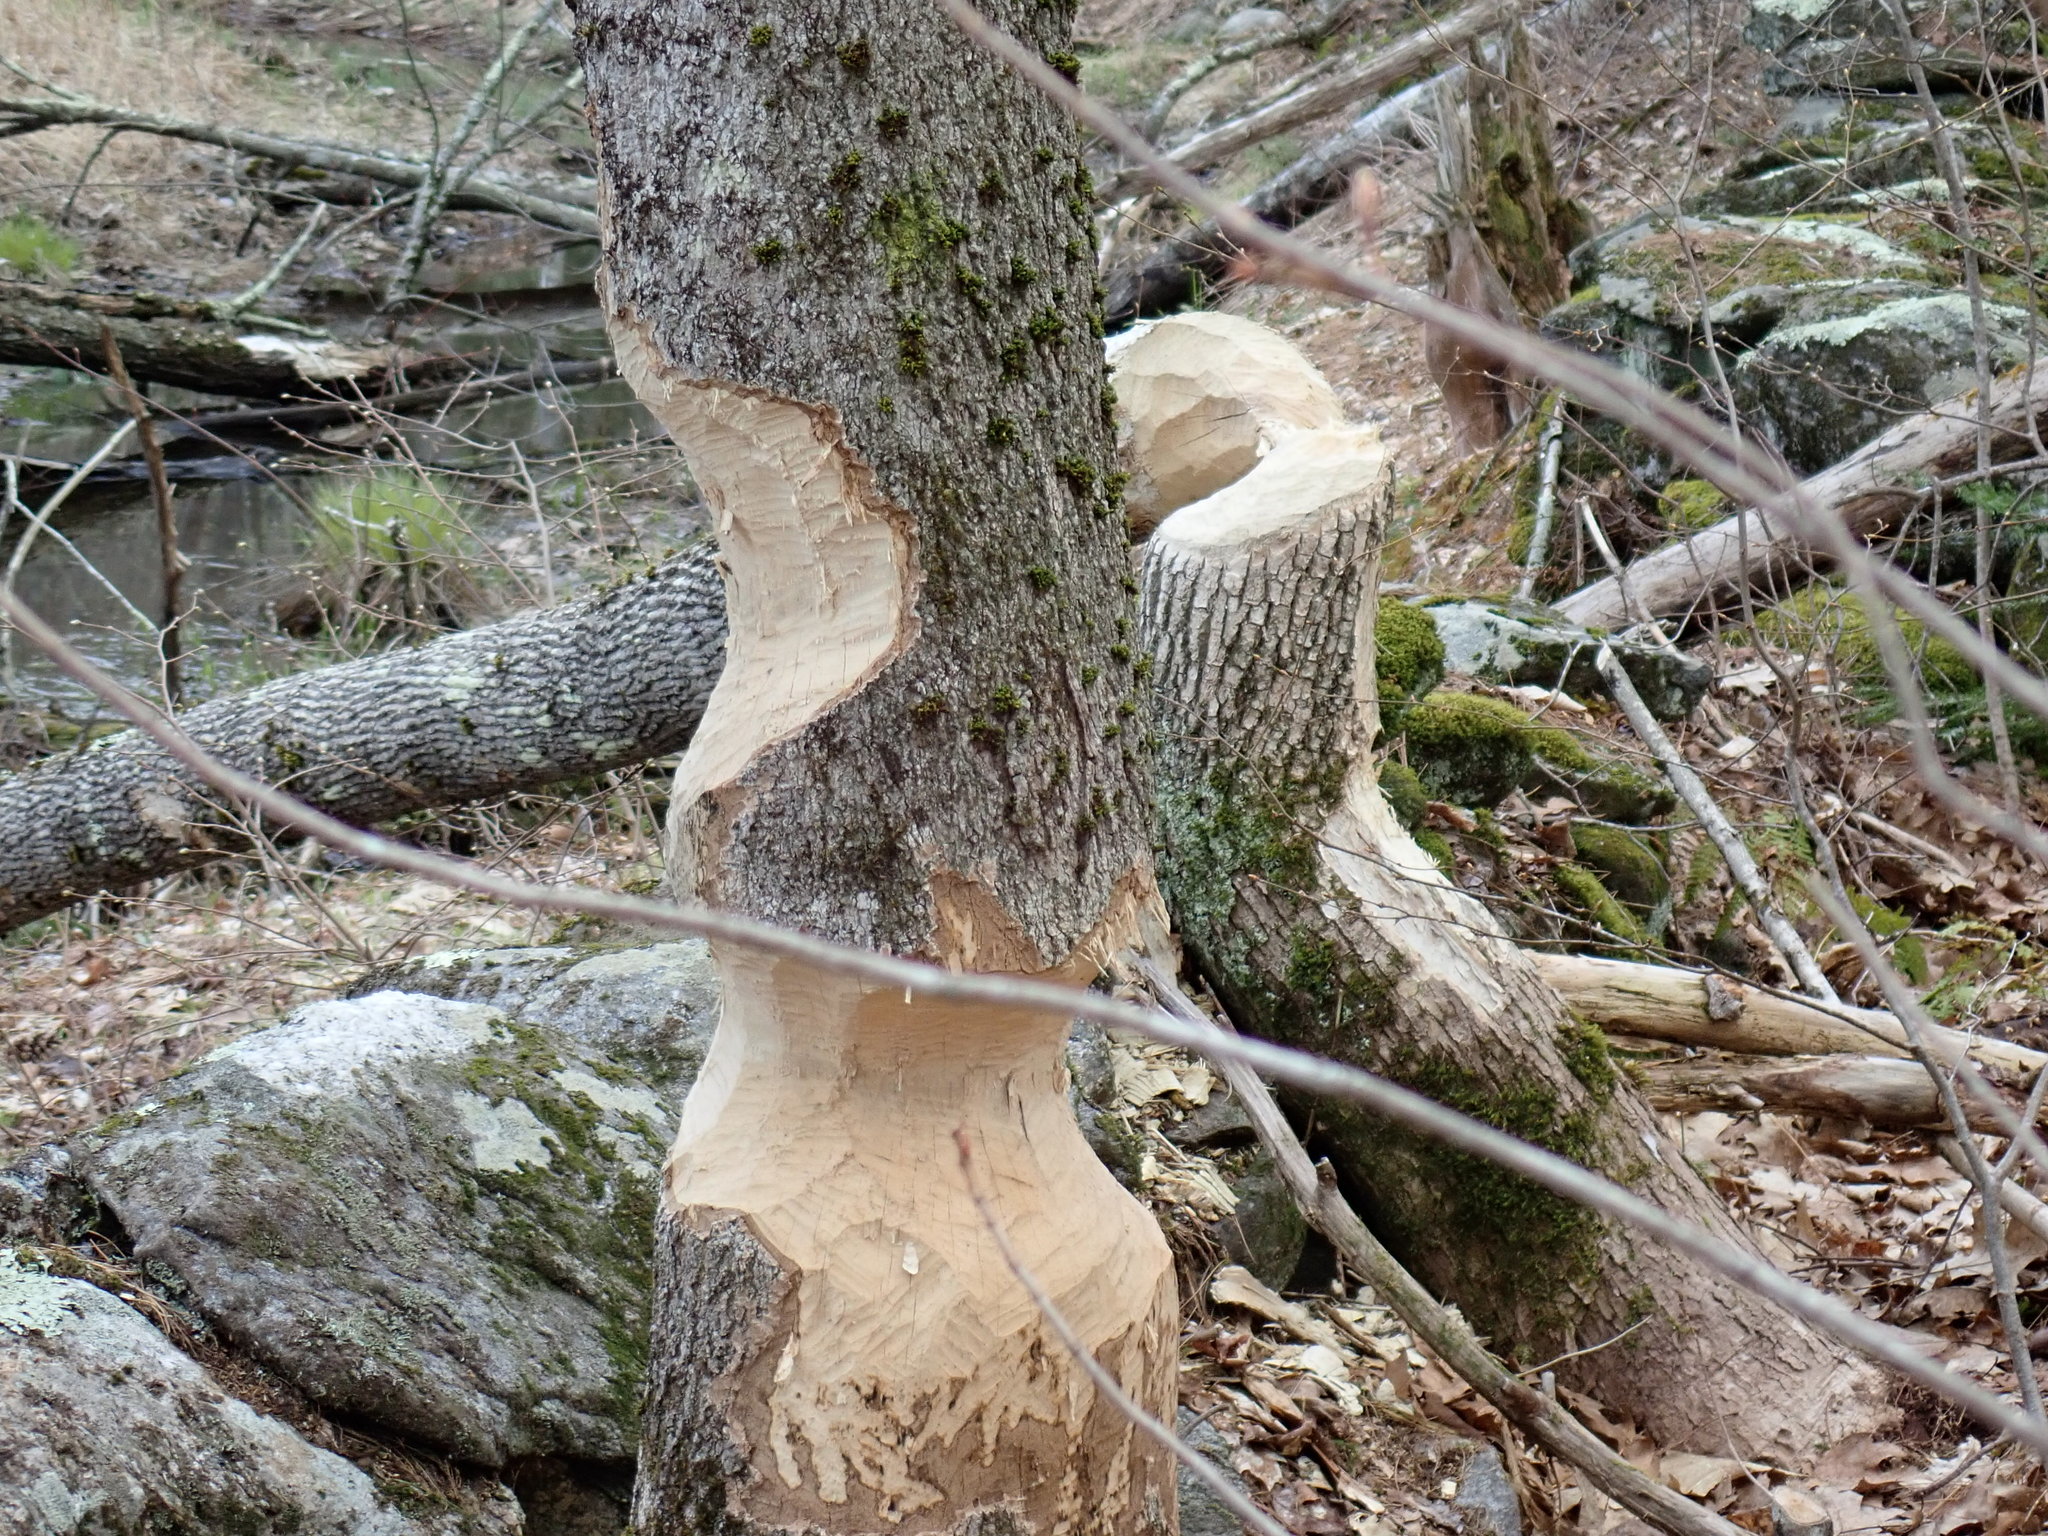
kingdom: Animalia
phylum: Chordata
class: Mammalia
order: Rodentia
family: Castoridae
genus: Castor
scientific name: Castor canadensis
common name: American beaver
